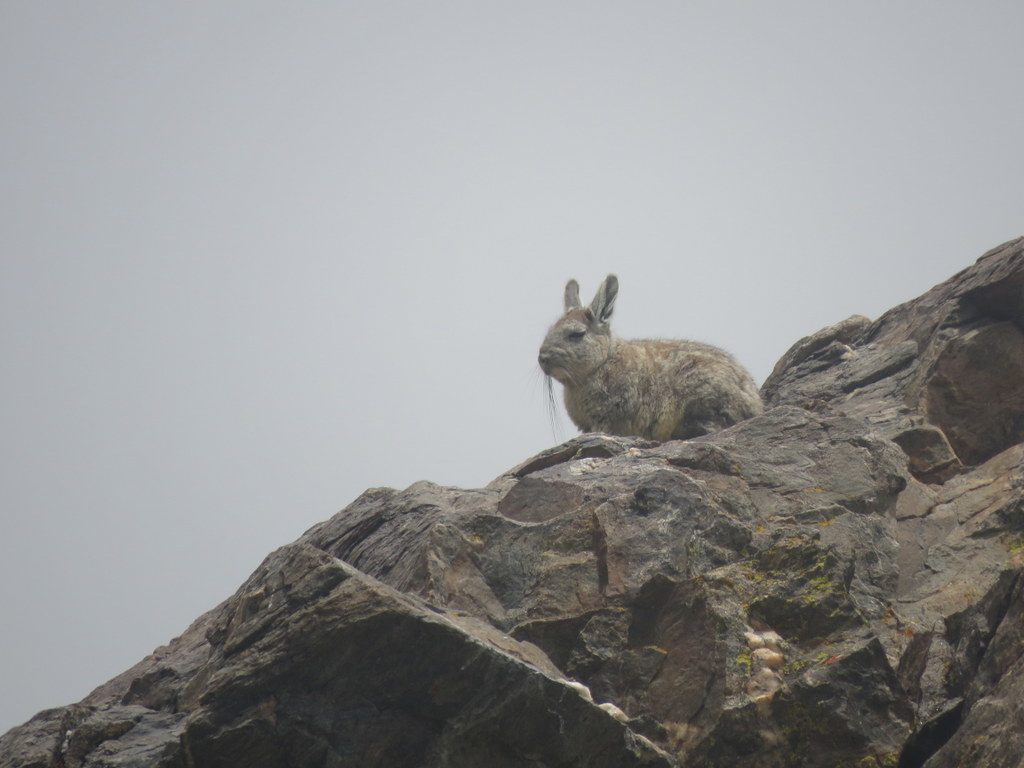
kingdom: Animalia
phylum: Chordata
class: Mammalia
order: Rodentia
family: Chinchillidae
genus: Lagidium
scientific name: Lagidium viscacia
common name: Southern viscacha
